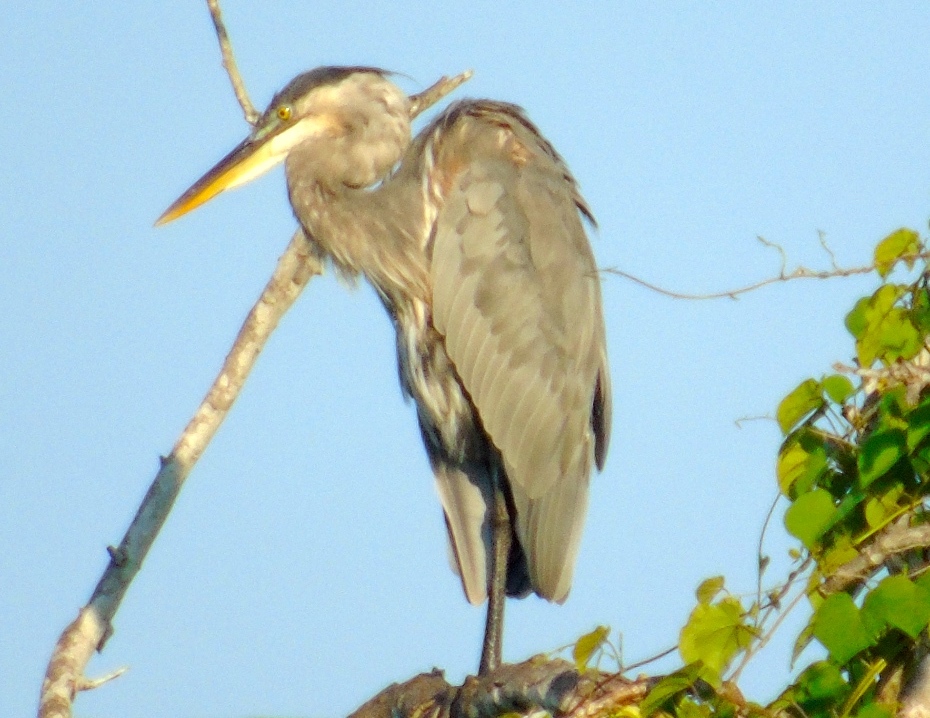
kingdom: Animalia
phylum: Chordata
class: Aves
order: Pelecaniformes
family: Ardeidae
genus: Ardea
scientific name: Ardea herodias
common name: Great blue heron
